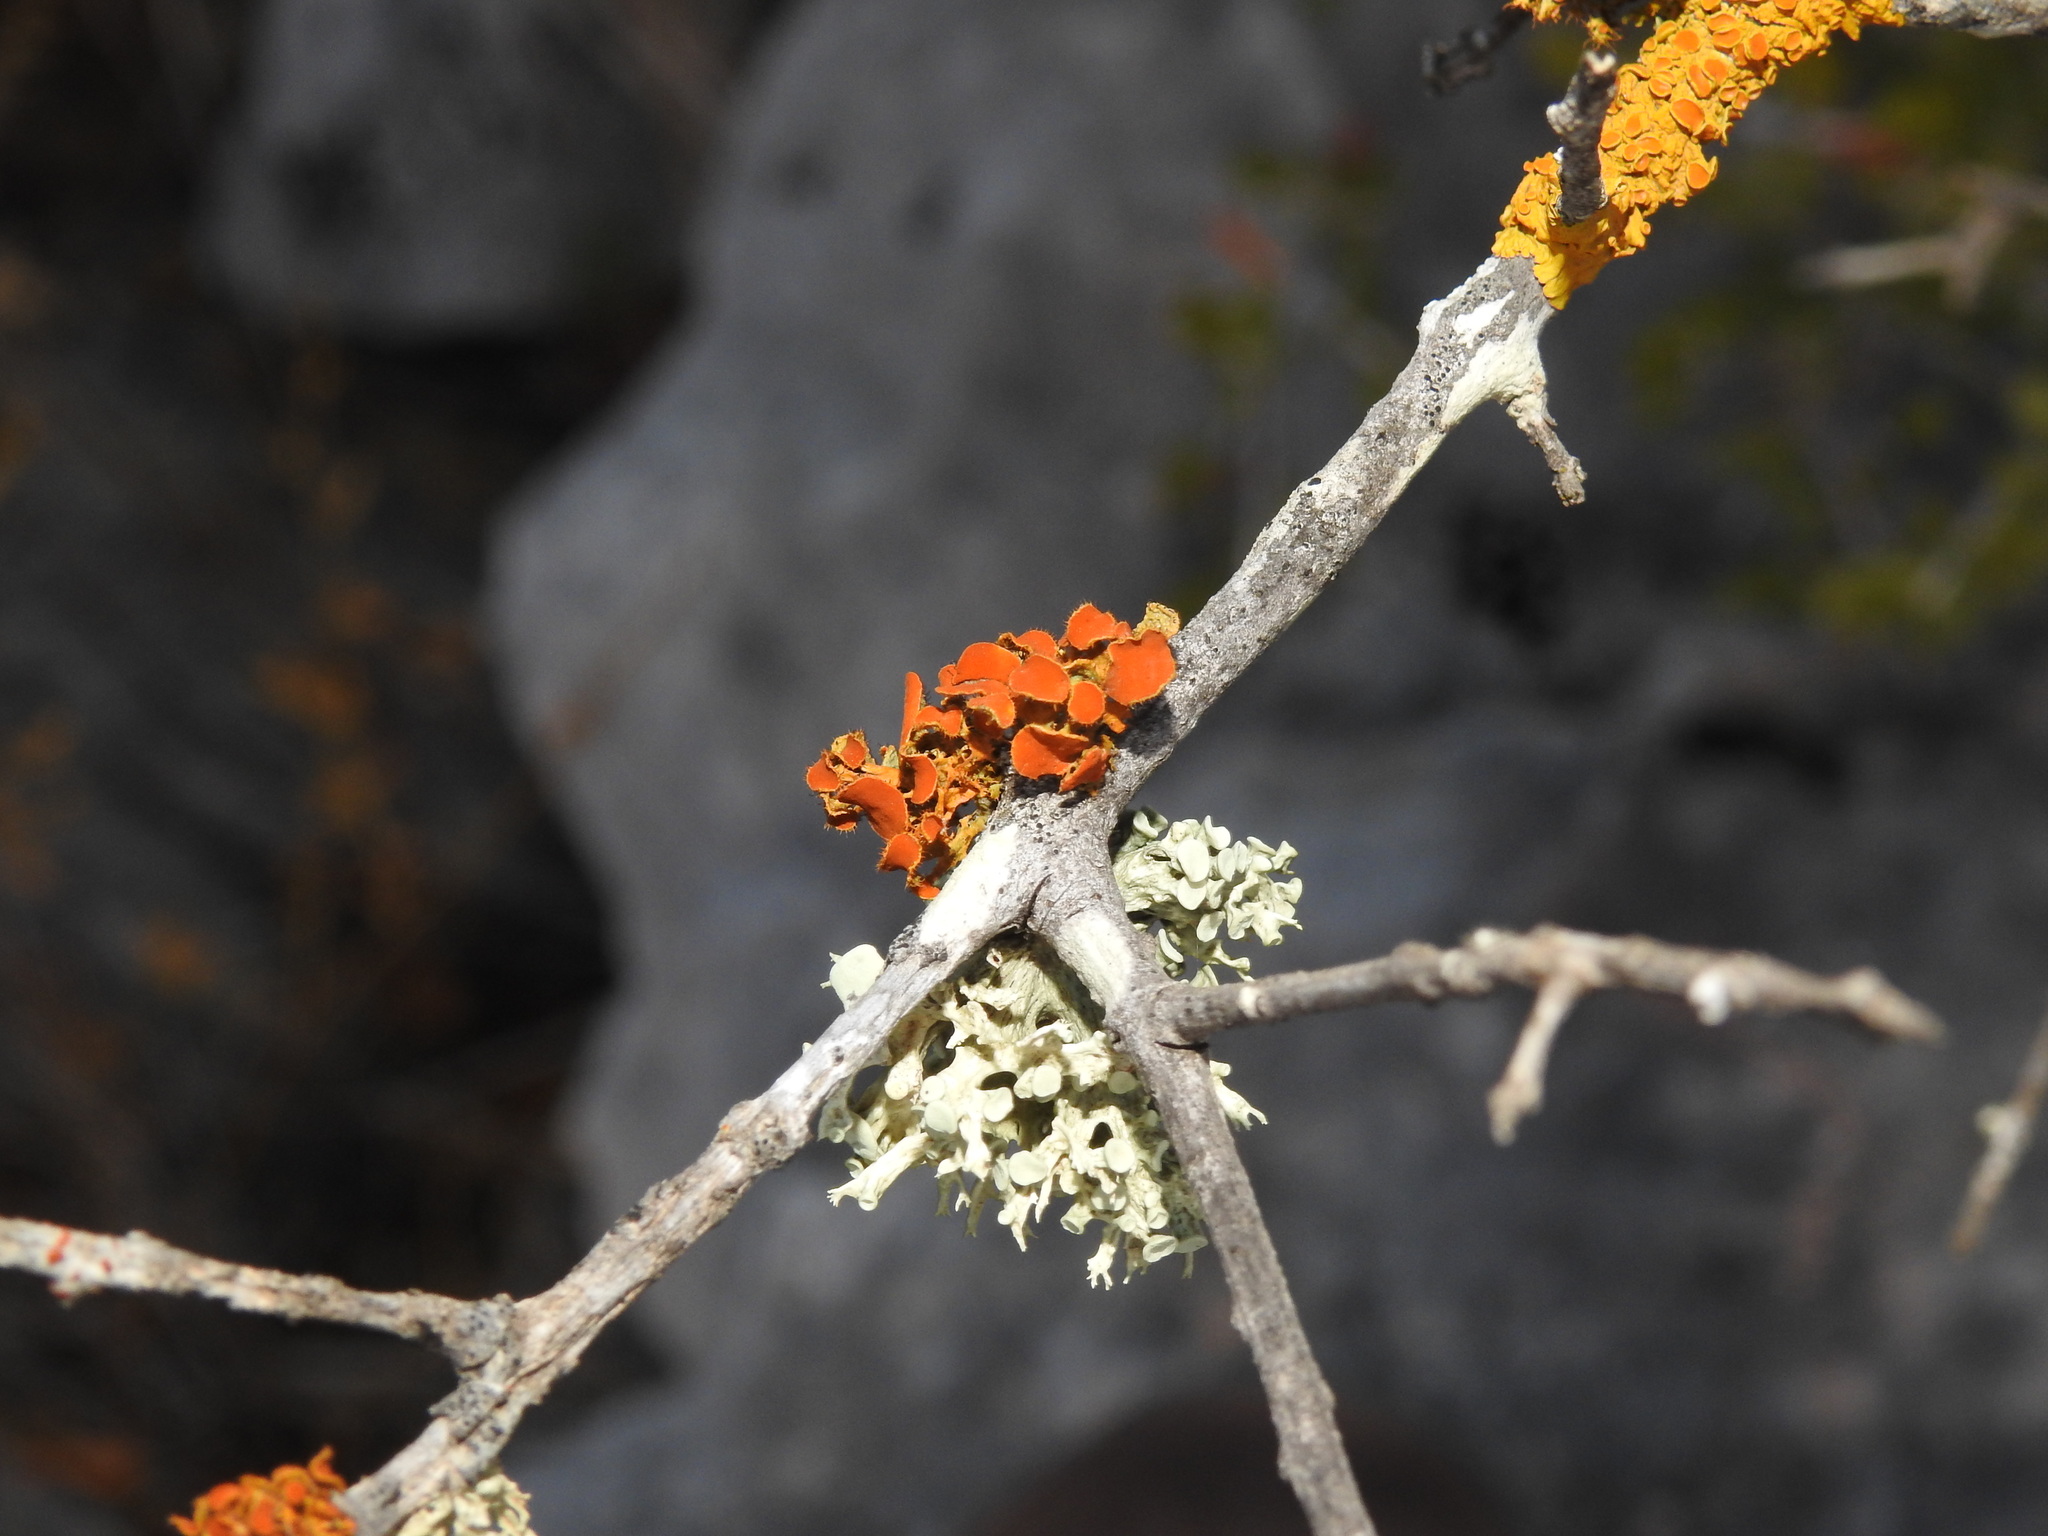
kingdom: Fungi
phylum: Ascomycota
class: Lecanoromycetes
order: Teloschistales
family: Teloschistaceae
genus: Niorma
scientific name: Niorma chrysophthalma
